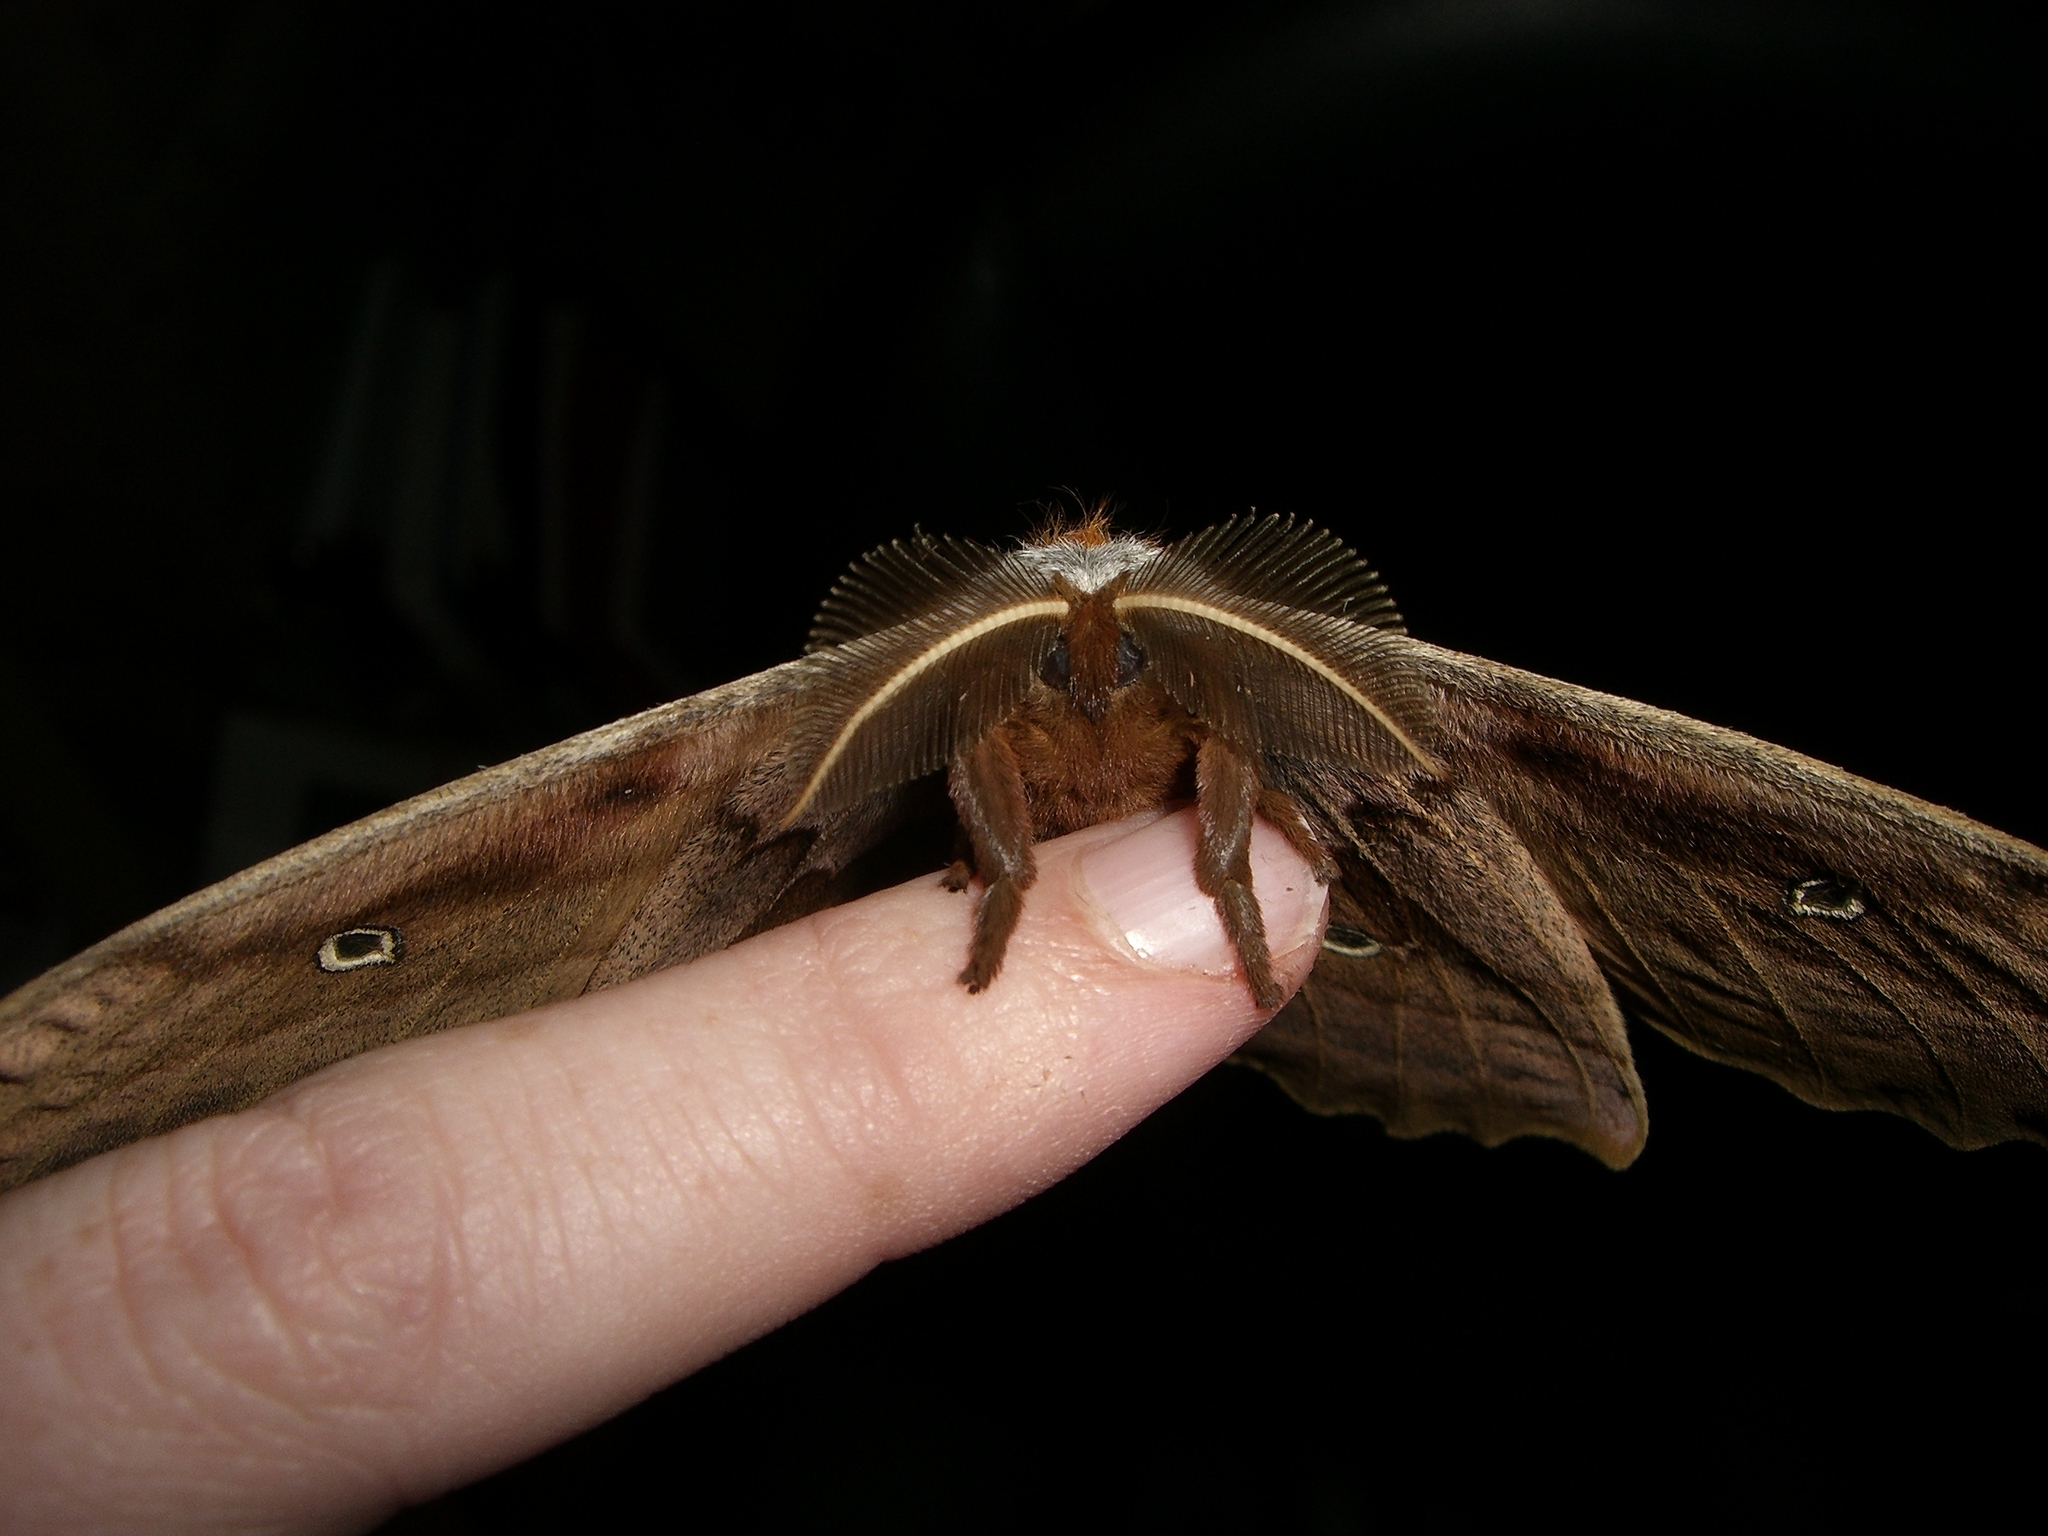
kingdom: Animalia
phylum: Arthropoda
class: Insecta
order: Lepidoptera
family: Saturniidae
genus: Antheraea
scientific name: Antheraea polyphemus
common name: Polyphemus moth
